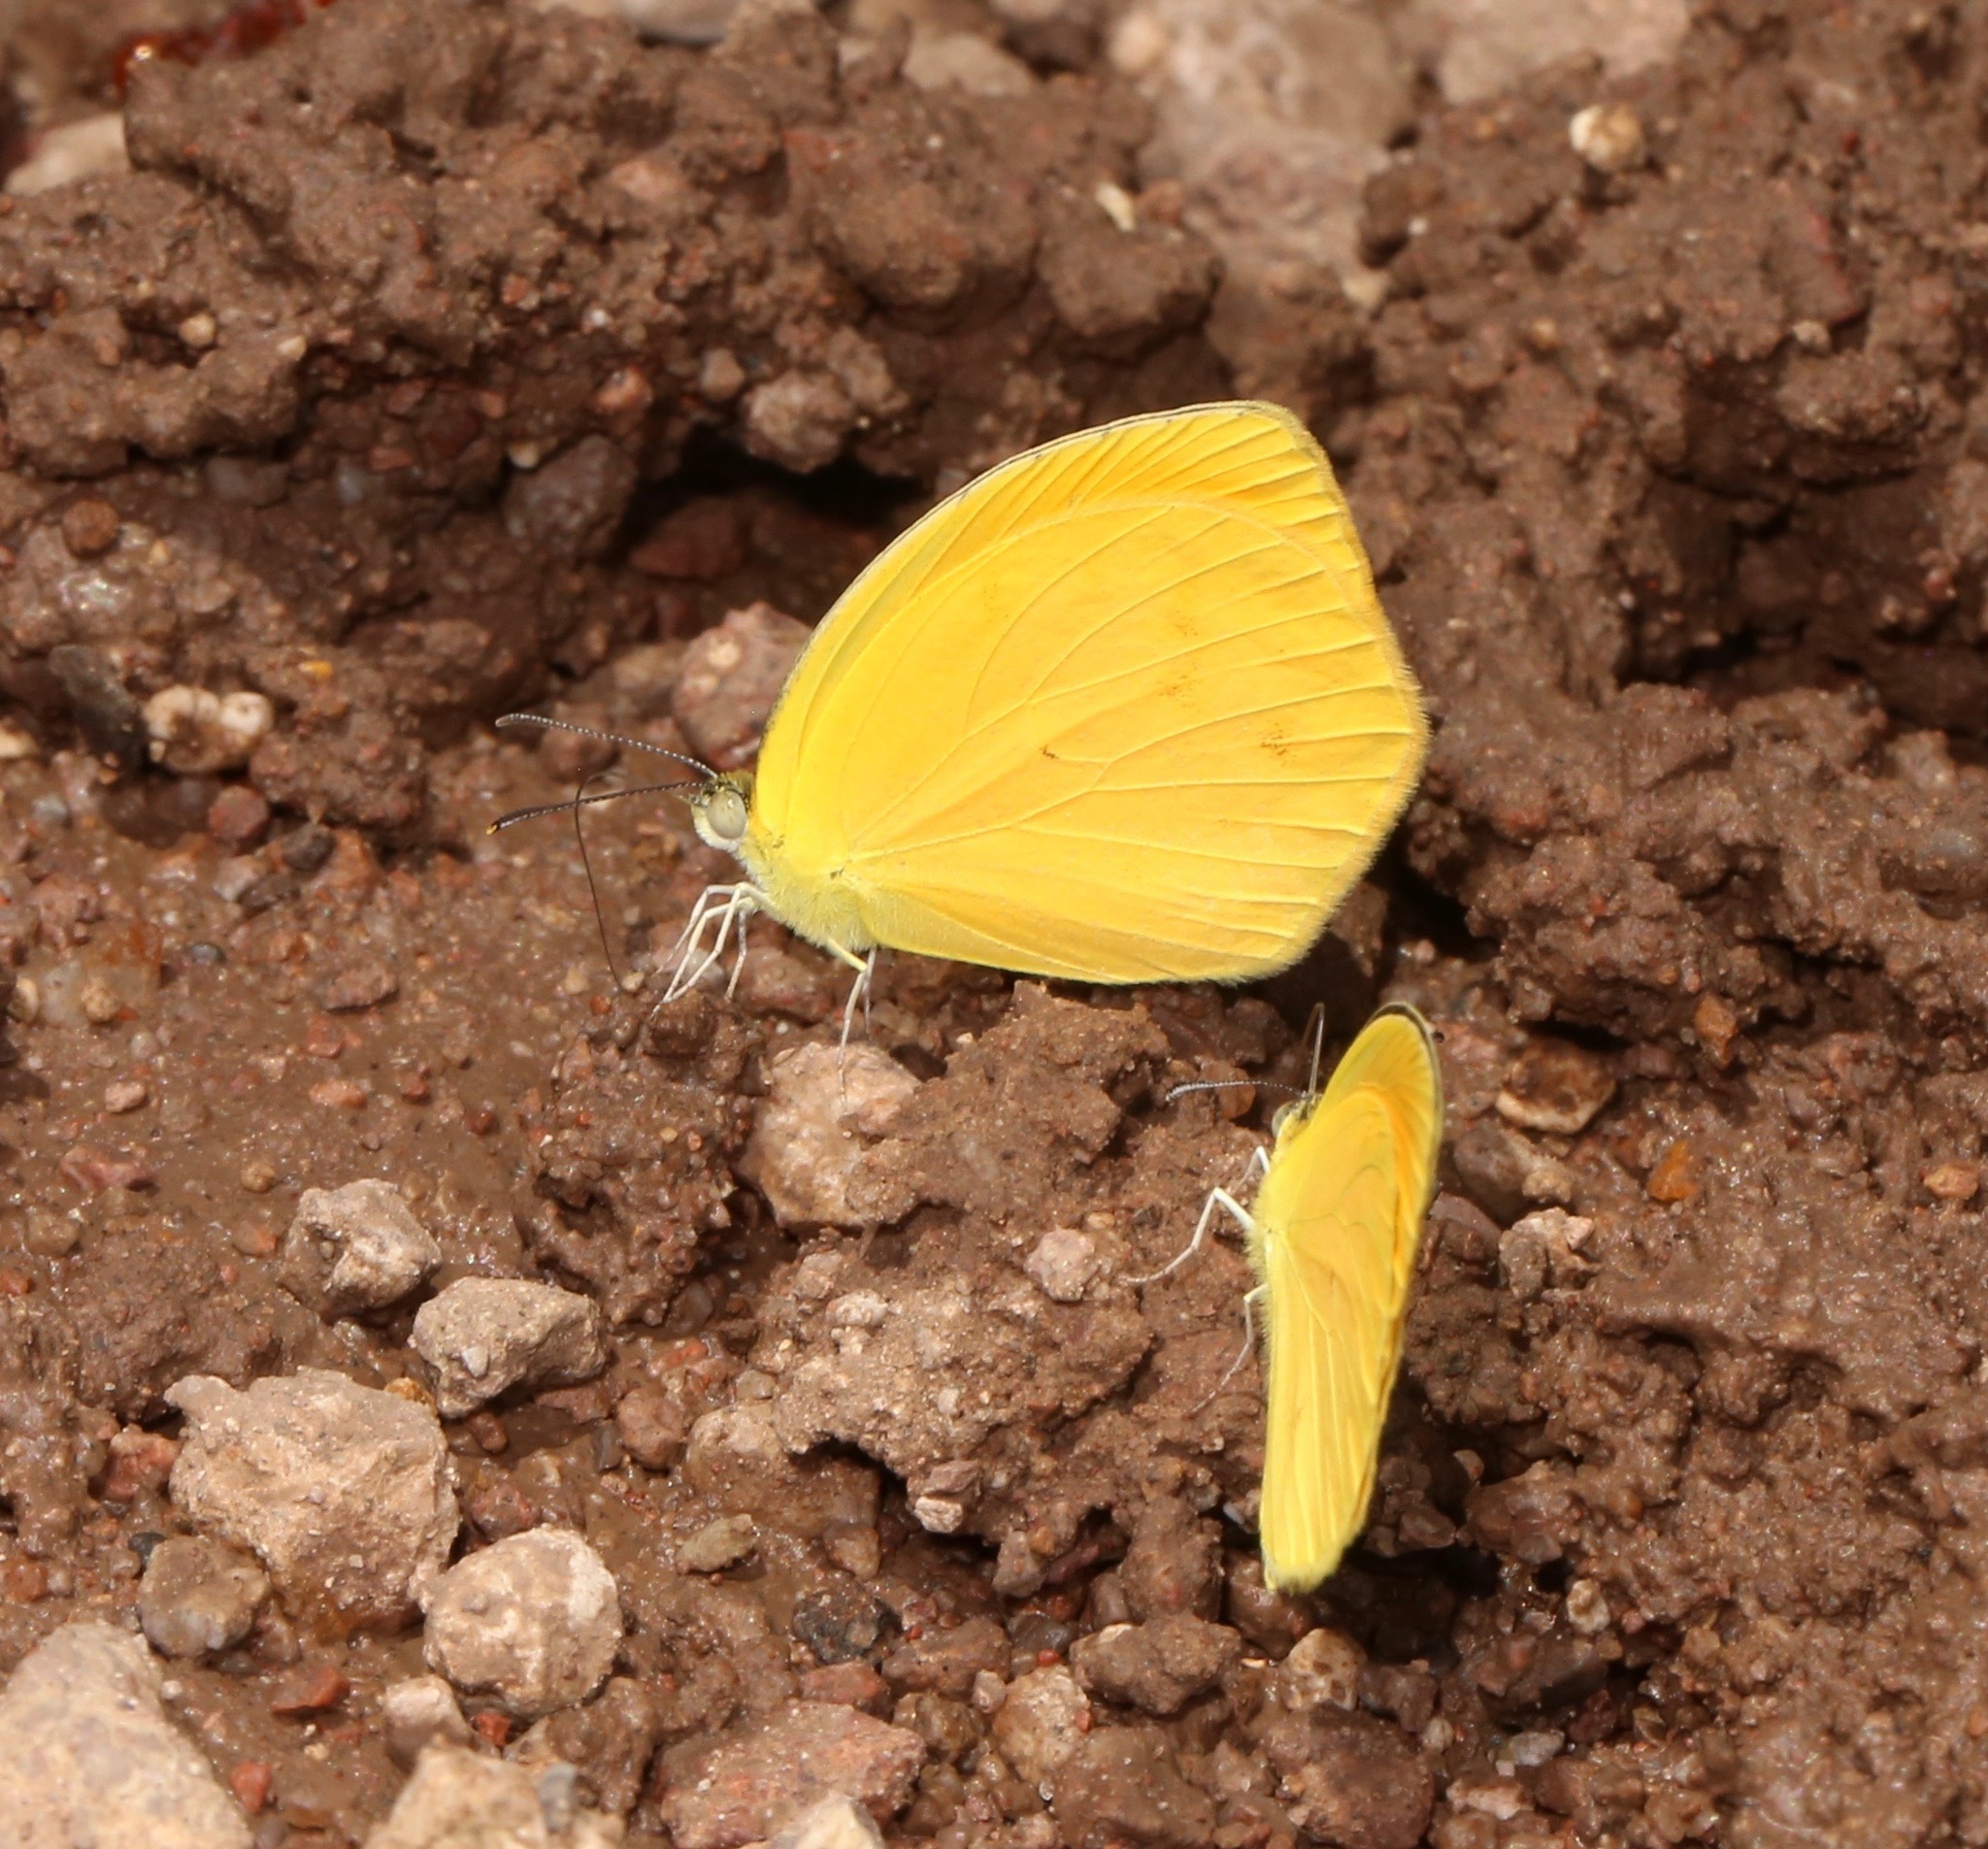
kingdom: Animalia
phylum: Arthropoda
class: Insecta
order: Lepidoptera
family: Pieridae
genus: Pyrisitia
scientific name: Pyrisitia proterpia
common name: Tailed orange
